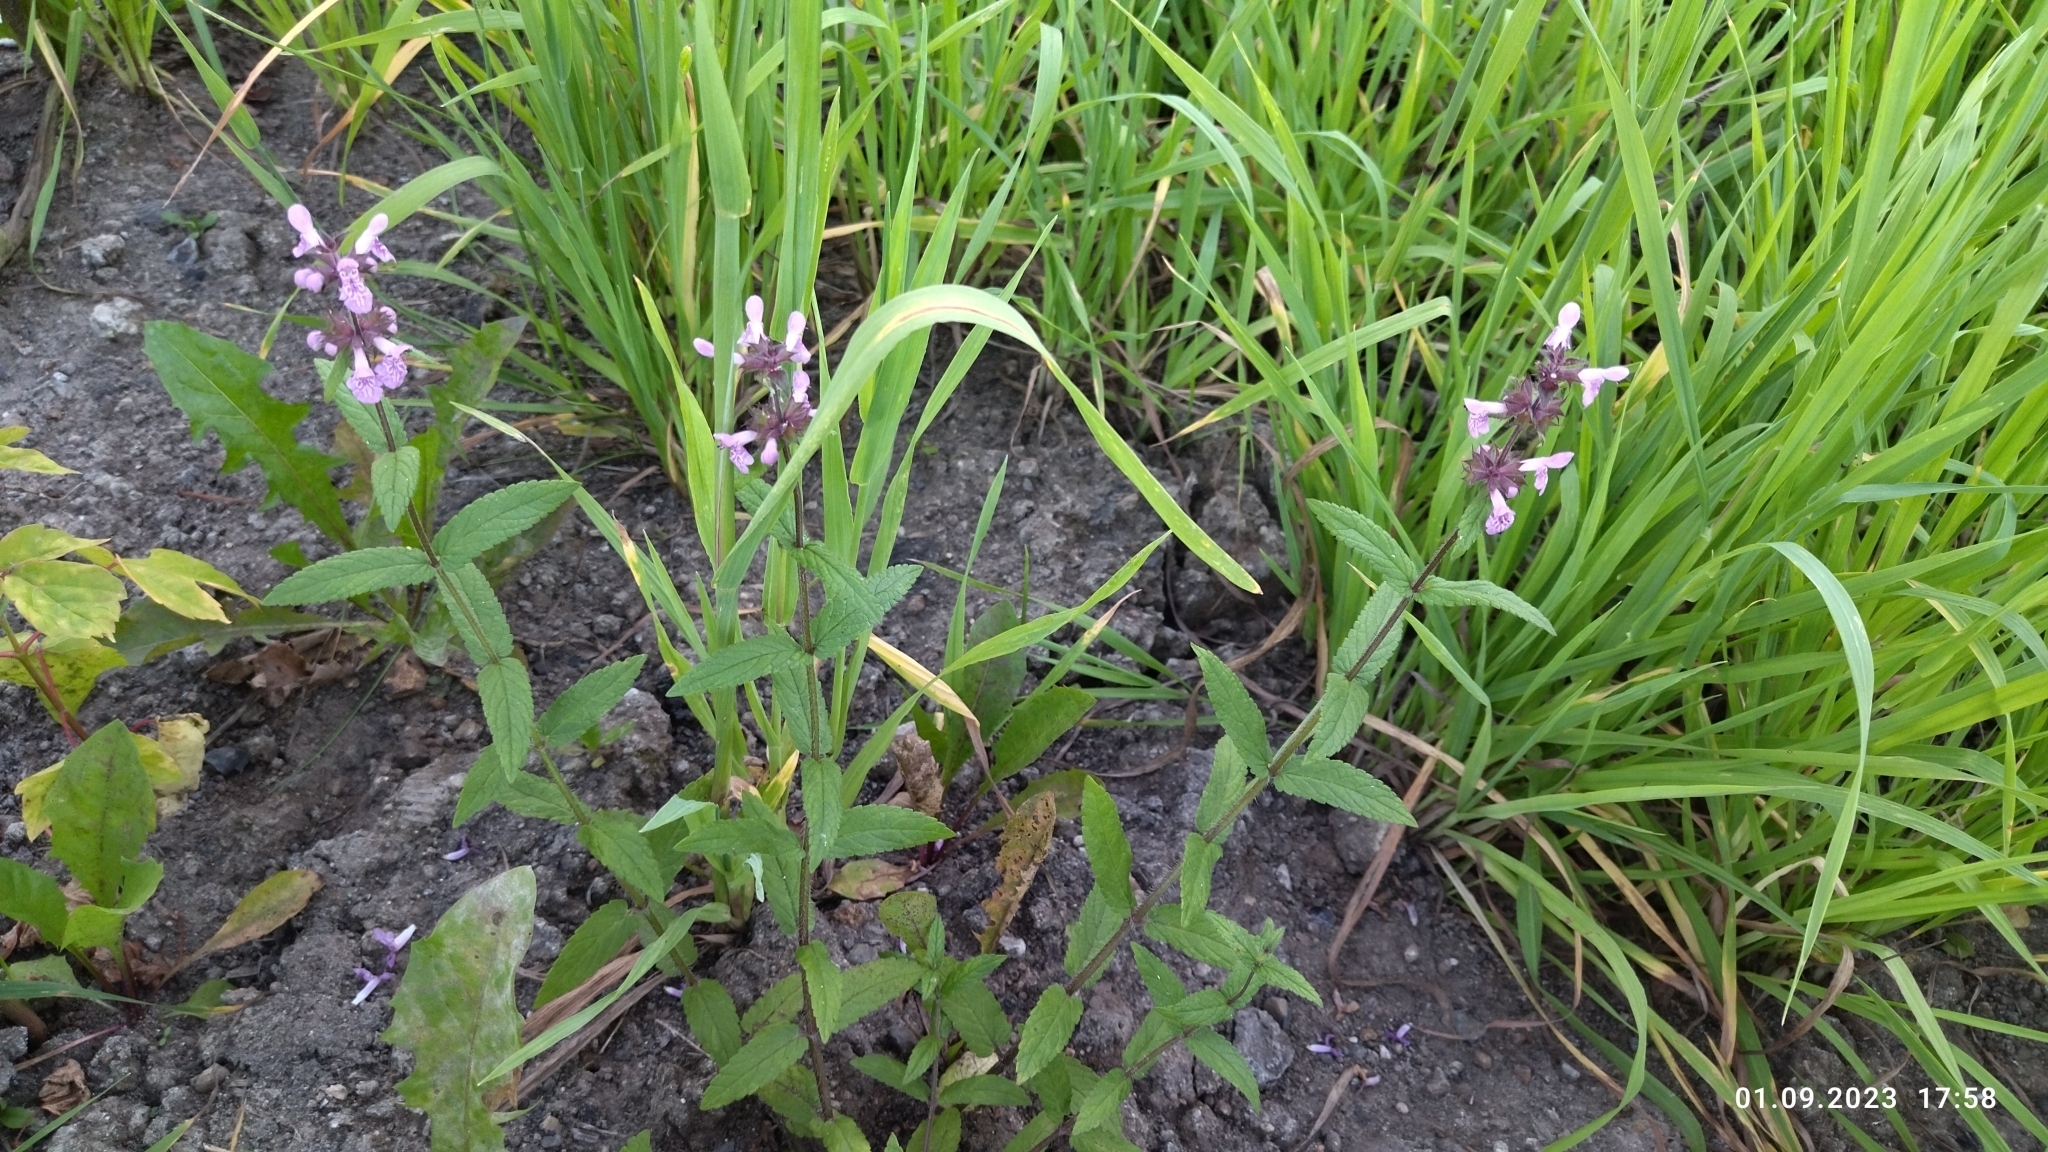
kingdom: Plantae
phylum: Tracheophyta
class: Magnoliopsida
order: Lamiales
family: Lamiaceae
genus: Stachys
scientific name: Stachys palustris
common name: Marsh woundwort
